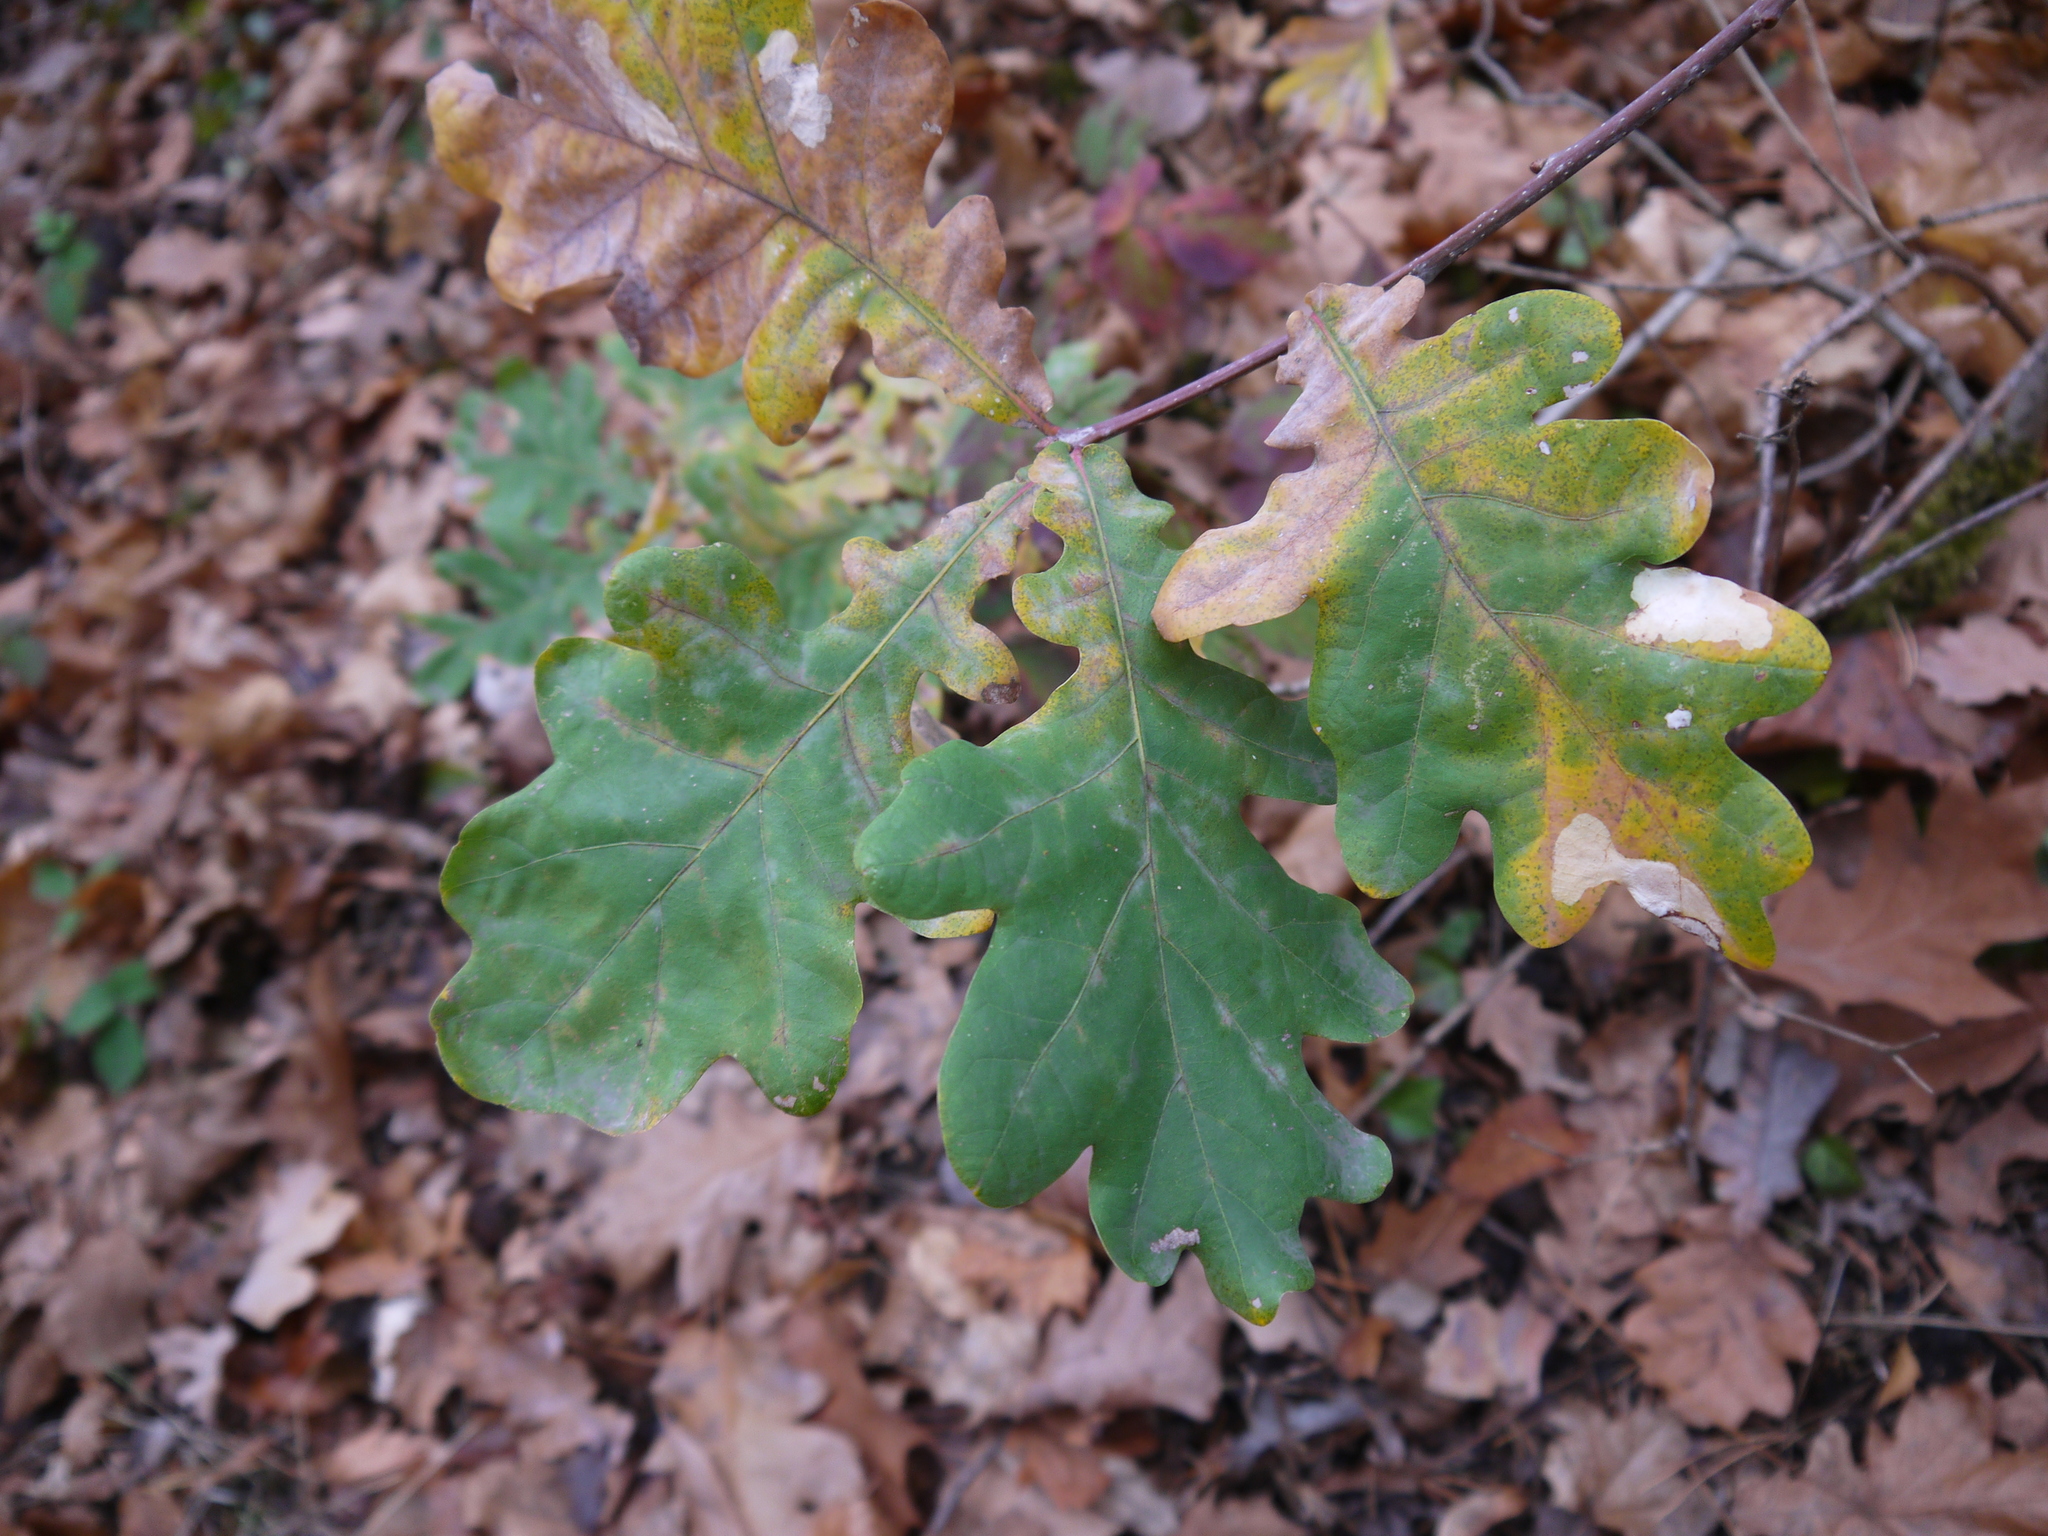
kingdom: Plantae
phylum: Tracheophyta
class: Magnoliopsida
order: Fagales
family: Fagaceae
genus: Quercus
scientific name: Quercus robur
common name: Pedunculate oak
